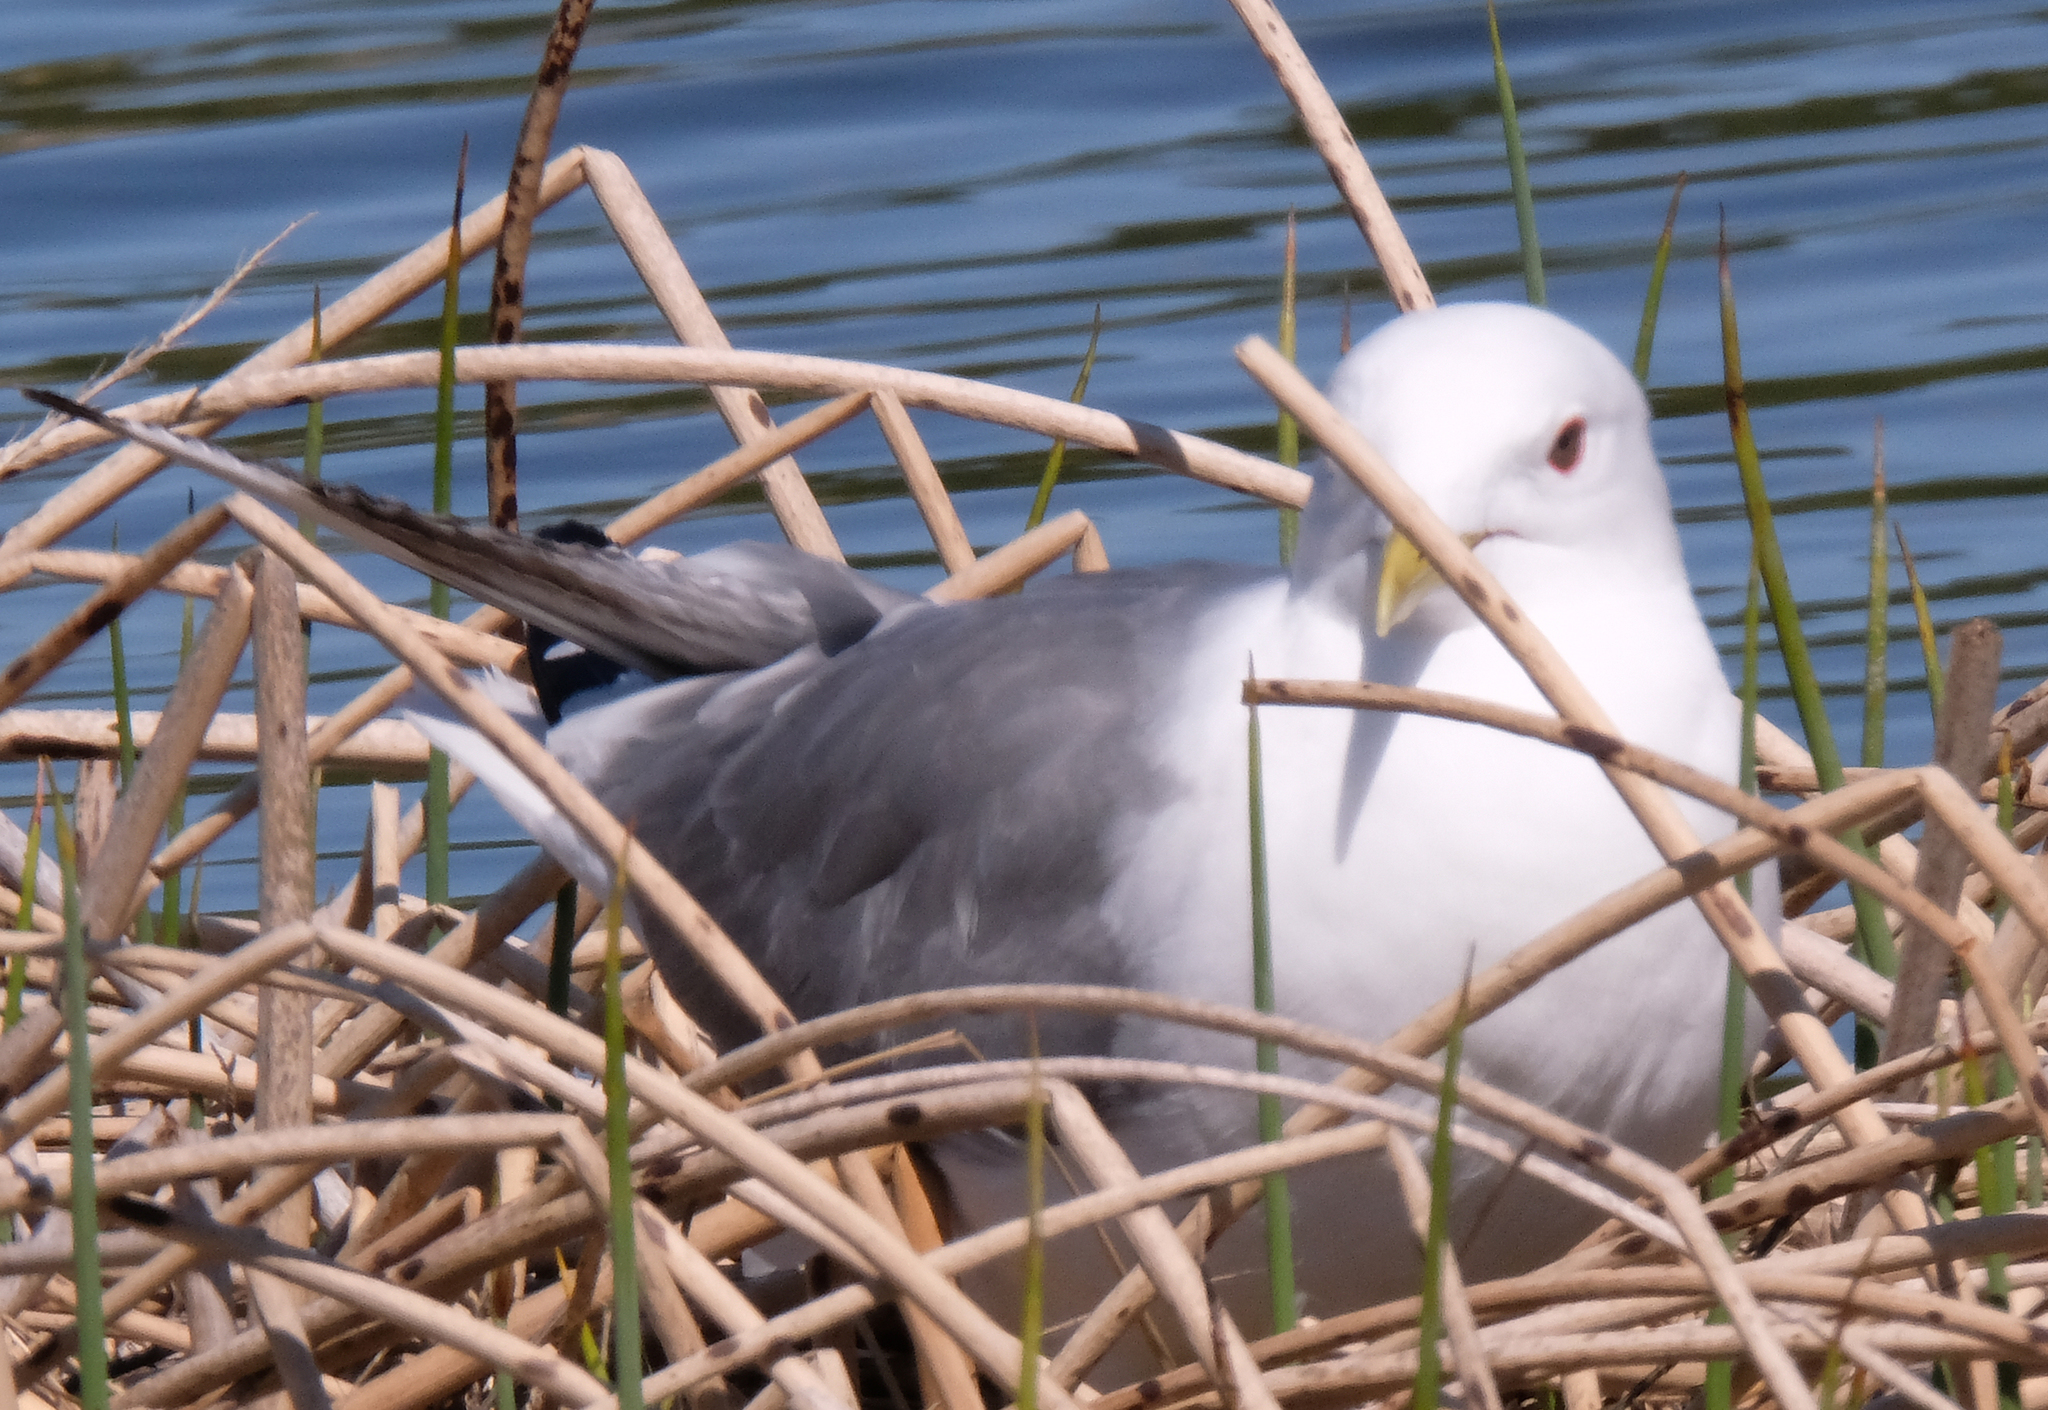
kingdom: Animalia
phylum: Chordata
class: Aves
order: Charadriiformes
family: Laridae
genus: Larus
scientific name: Larus brachyrhynchus
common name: Short-billed gull
